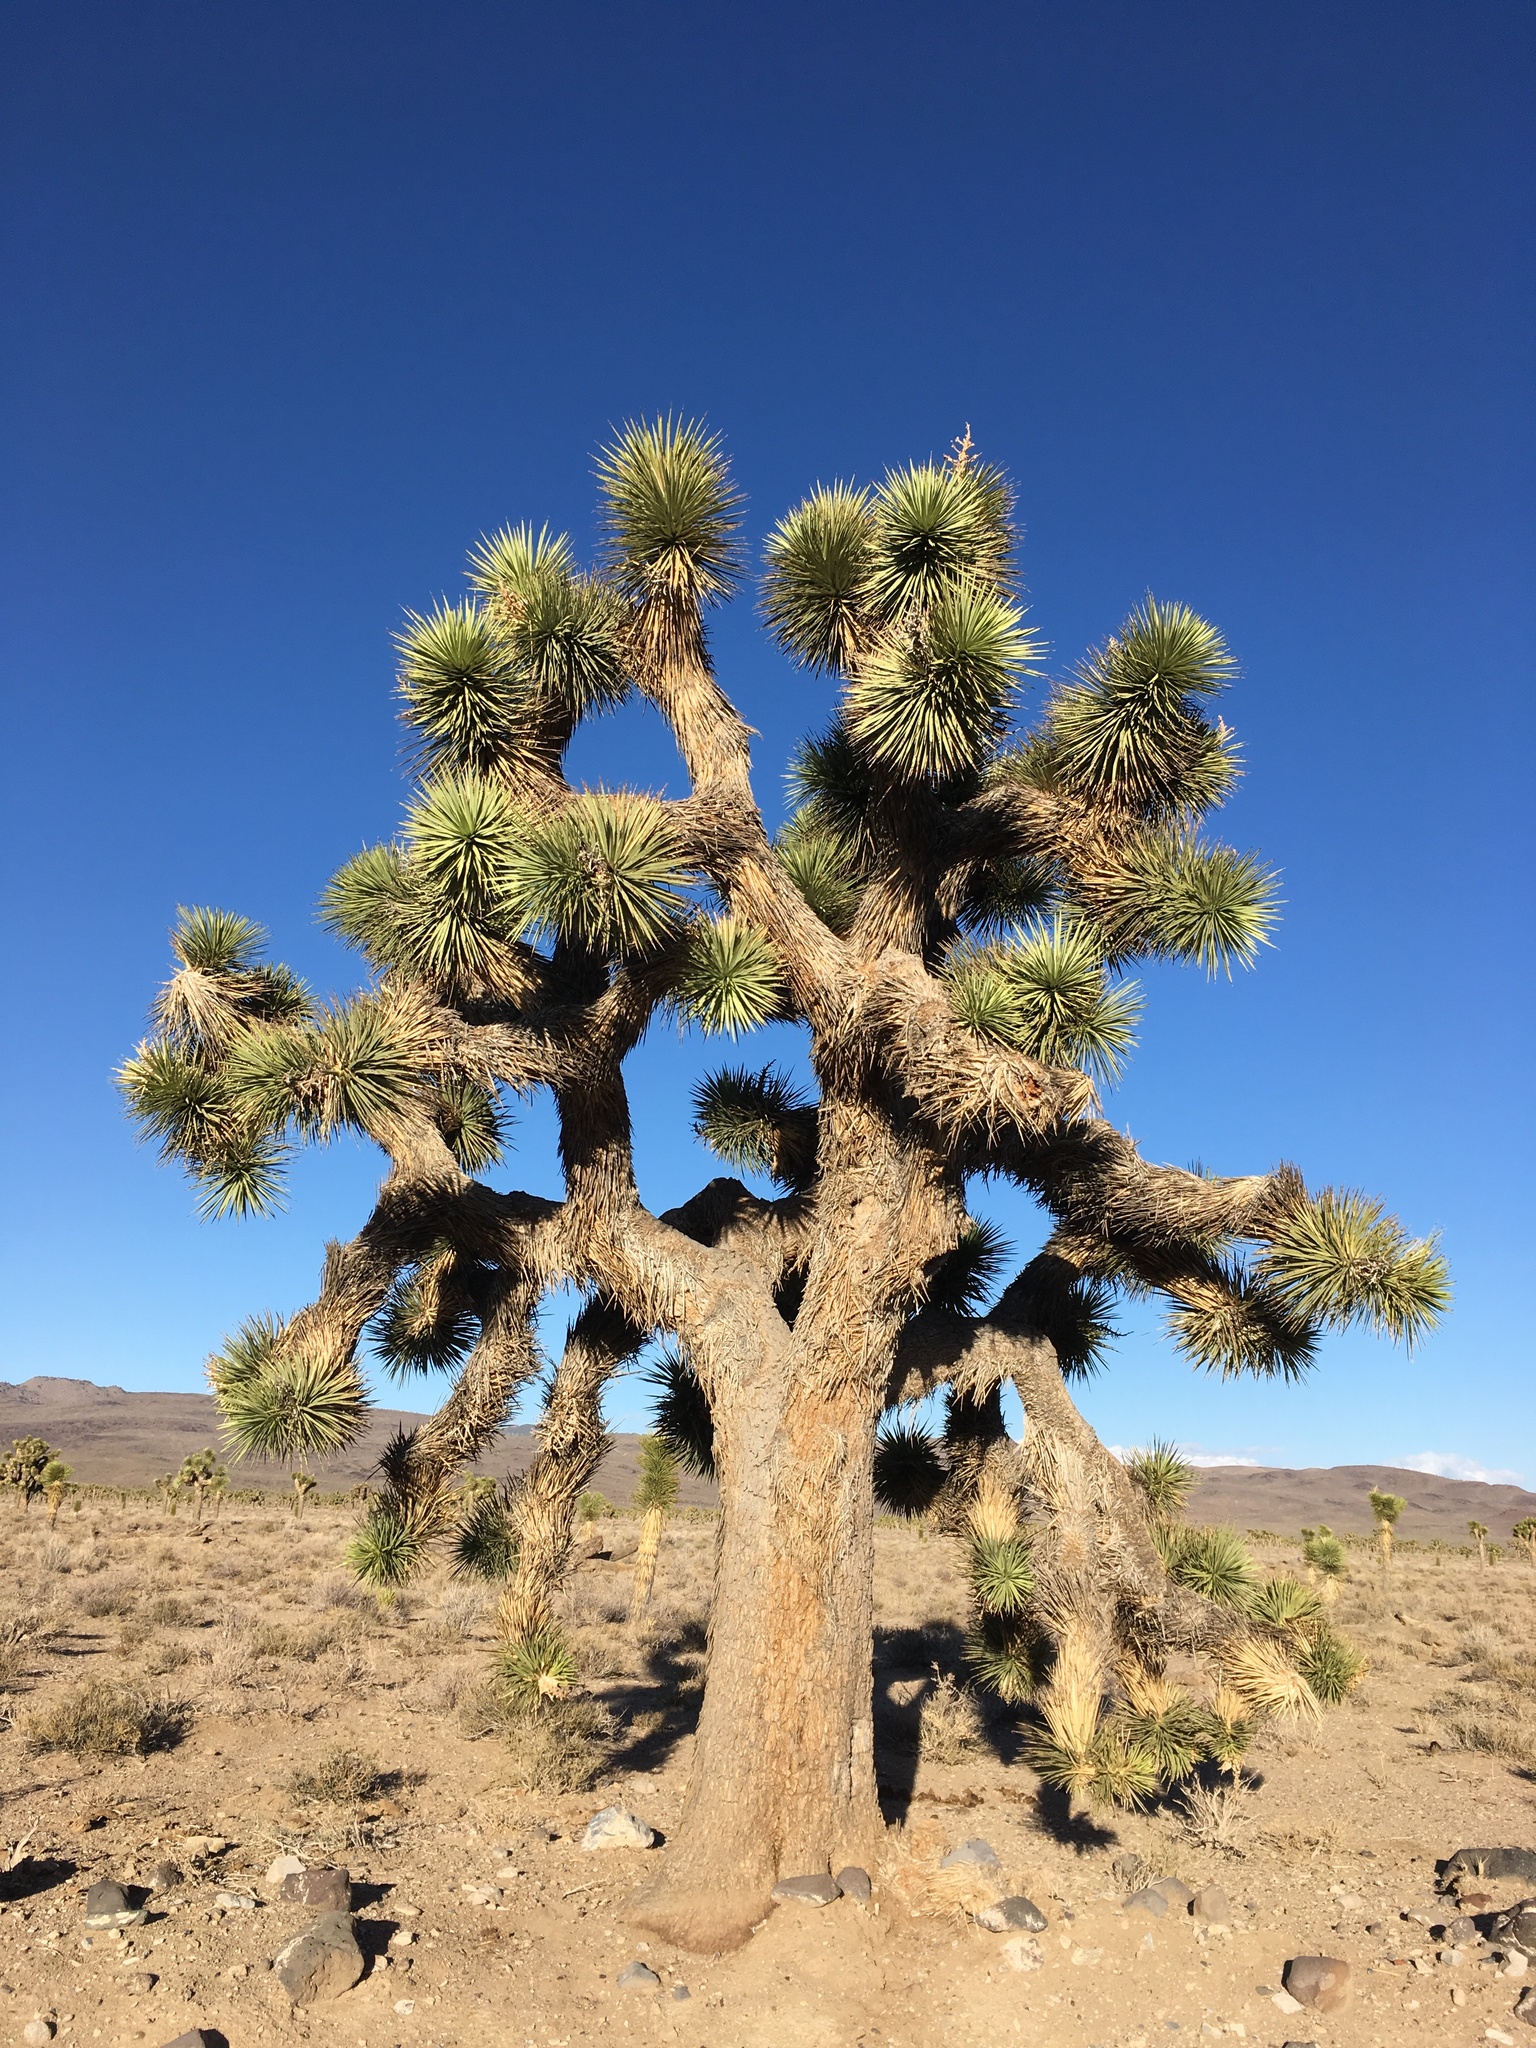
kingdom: Plantae
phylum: Tracheophyta
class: Liliopsida
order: Asparagales
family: Asparagaceae
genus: Yucca
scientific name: Yucca brevifolia
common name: Joshua tree
